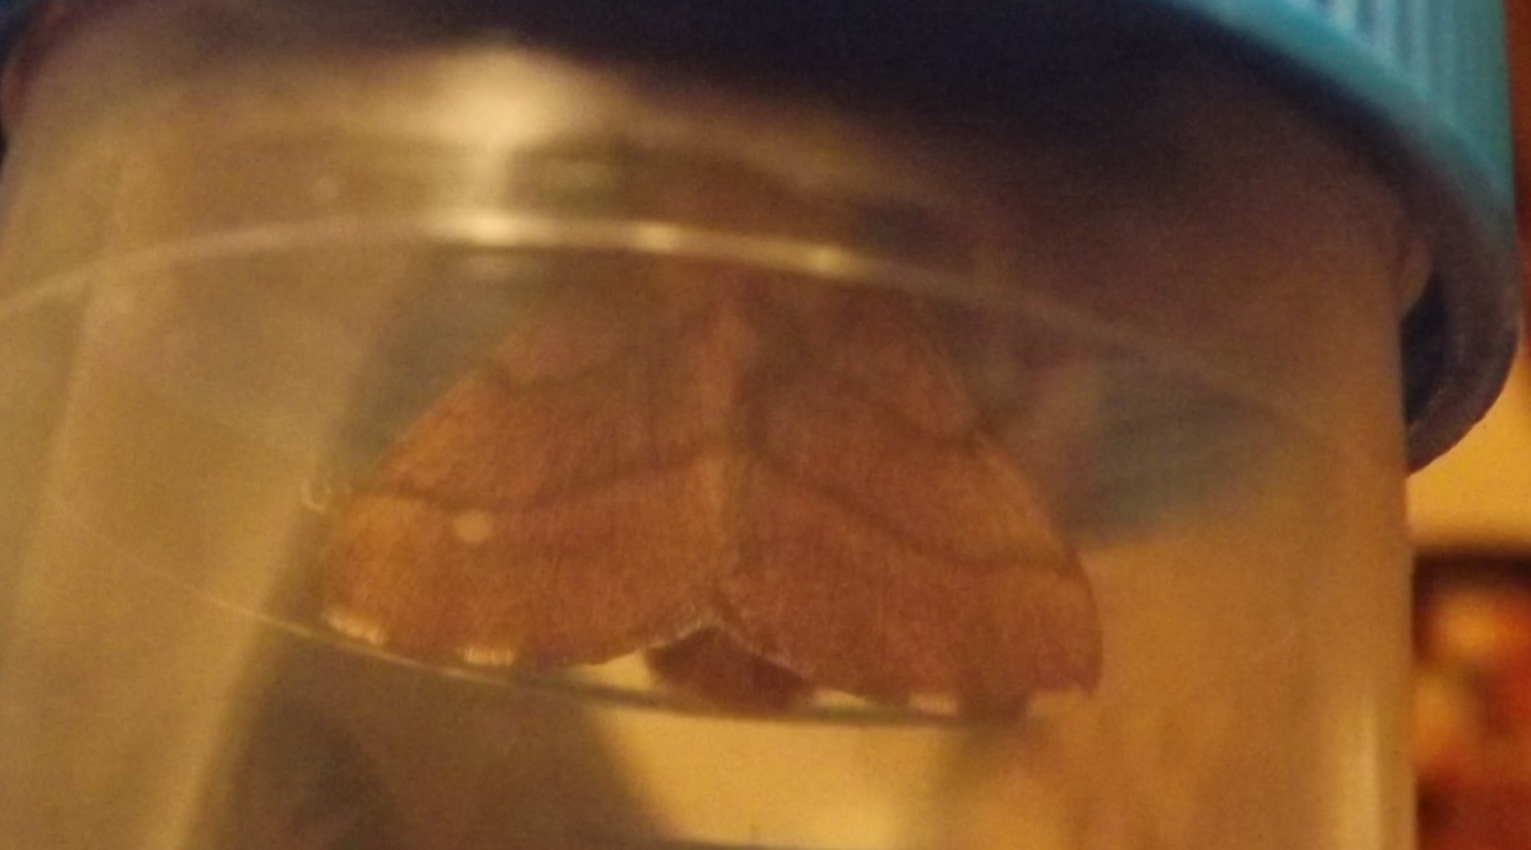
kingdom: Animalia
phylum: Arthropoda
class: Insecta
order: Lepidoptera
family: Lasiocampidae
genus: Malacosoma
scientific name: Malacosoma disstria
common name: Forest tent caterpillar
